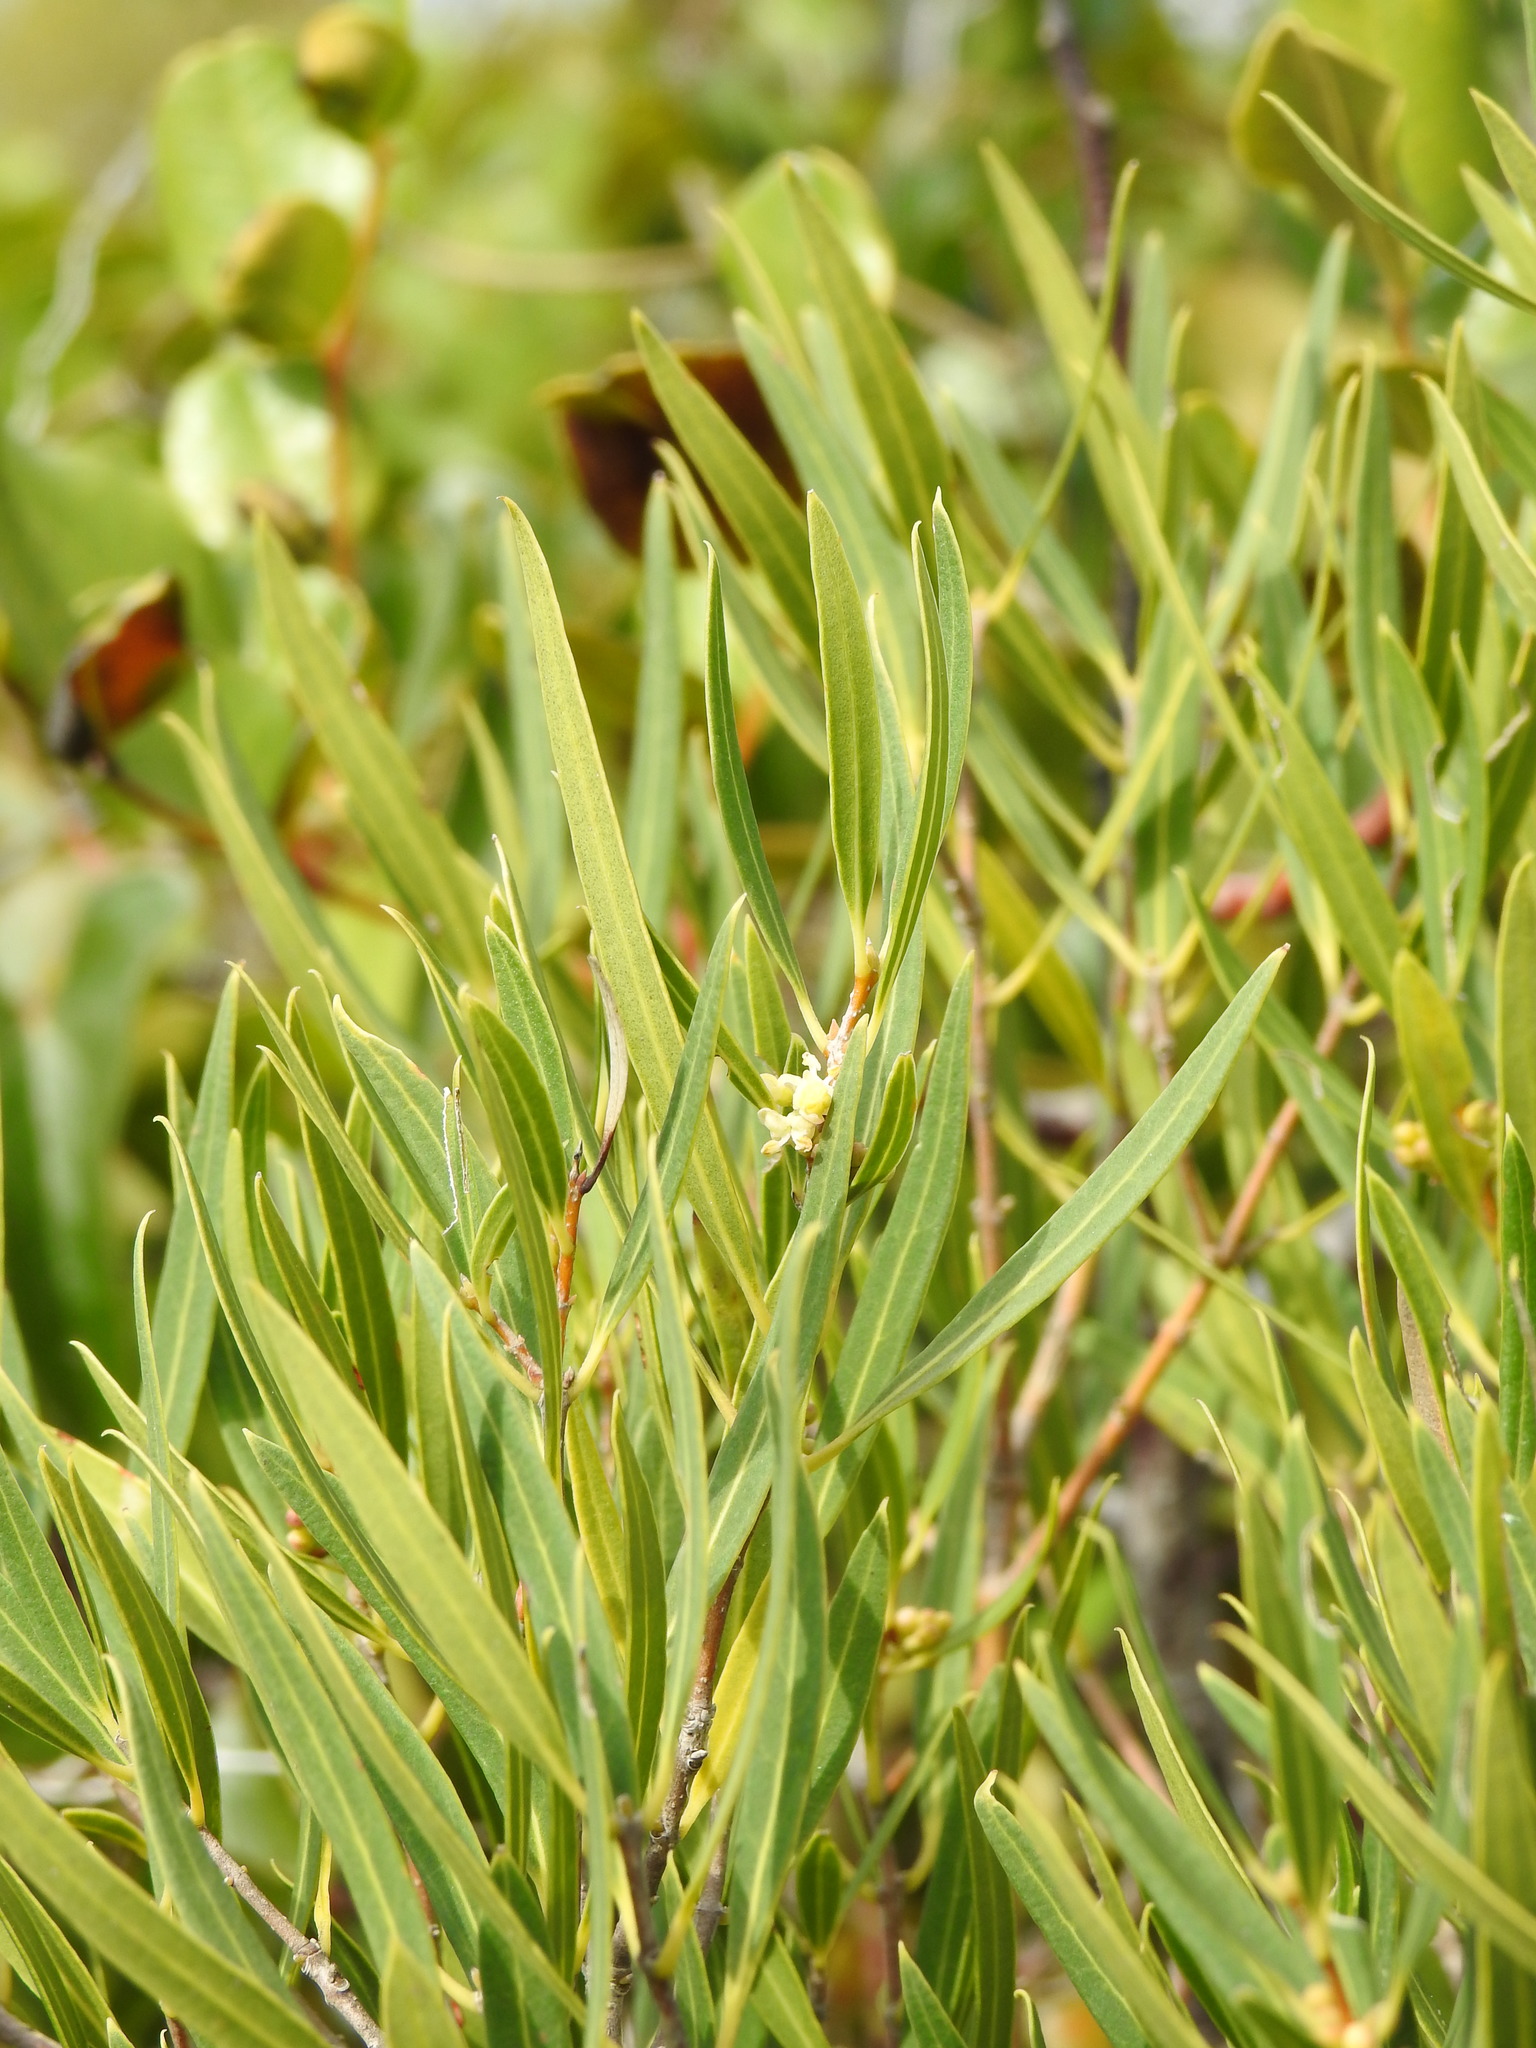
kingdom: Plantae
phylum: Tracheophyta
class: Magnoliopsida
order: Lamiales
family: Oleaceae
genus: Phillyrea
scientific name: Phillyrea angustifolia
